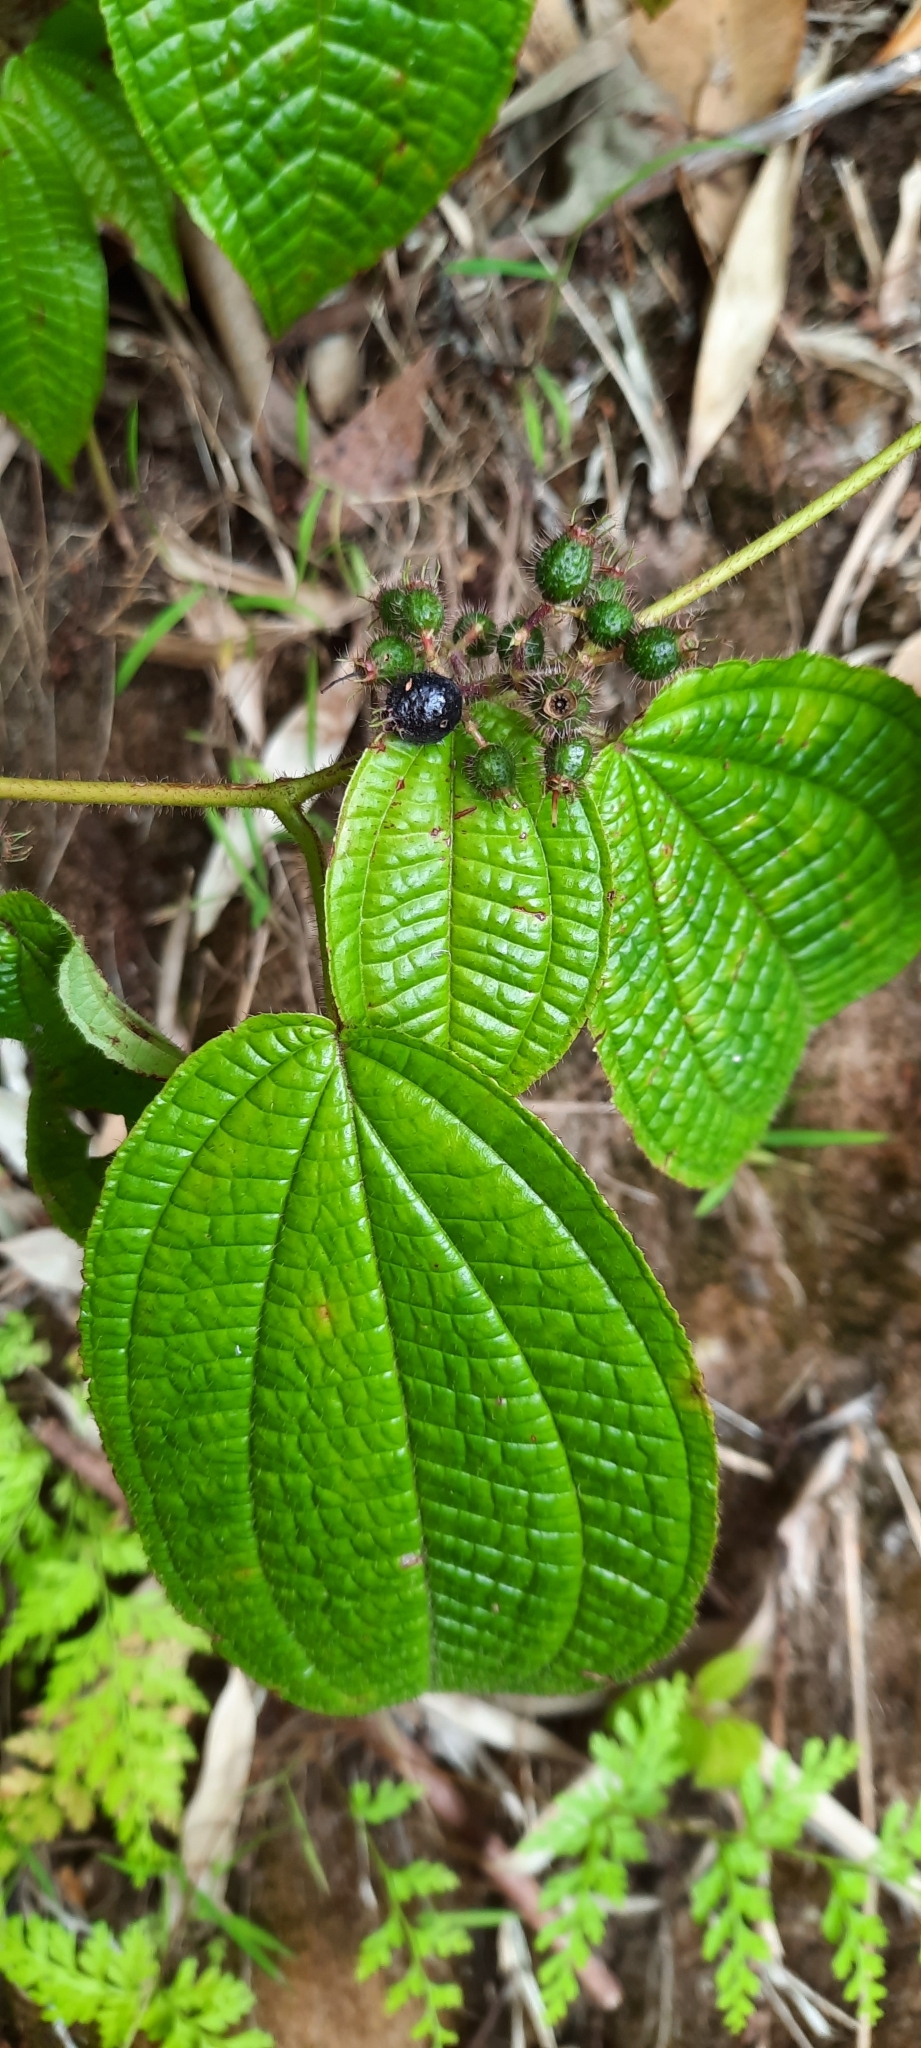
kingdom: Plantae
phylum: Tracheophyta
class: Magnoliopsida
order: Myrtales
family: Melastomataceae
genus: Miconia
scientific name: Miconia crenata
